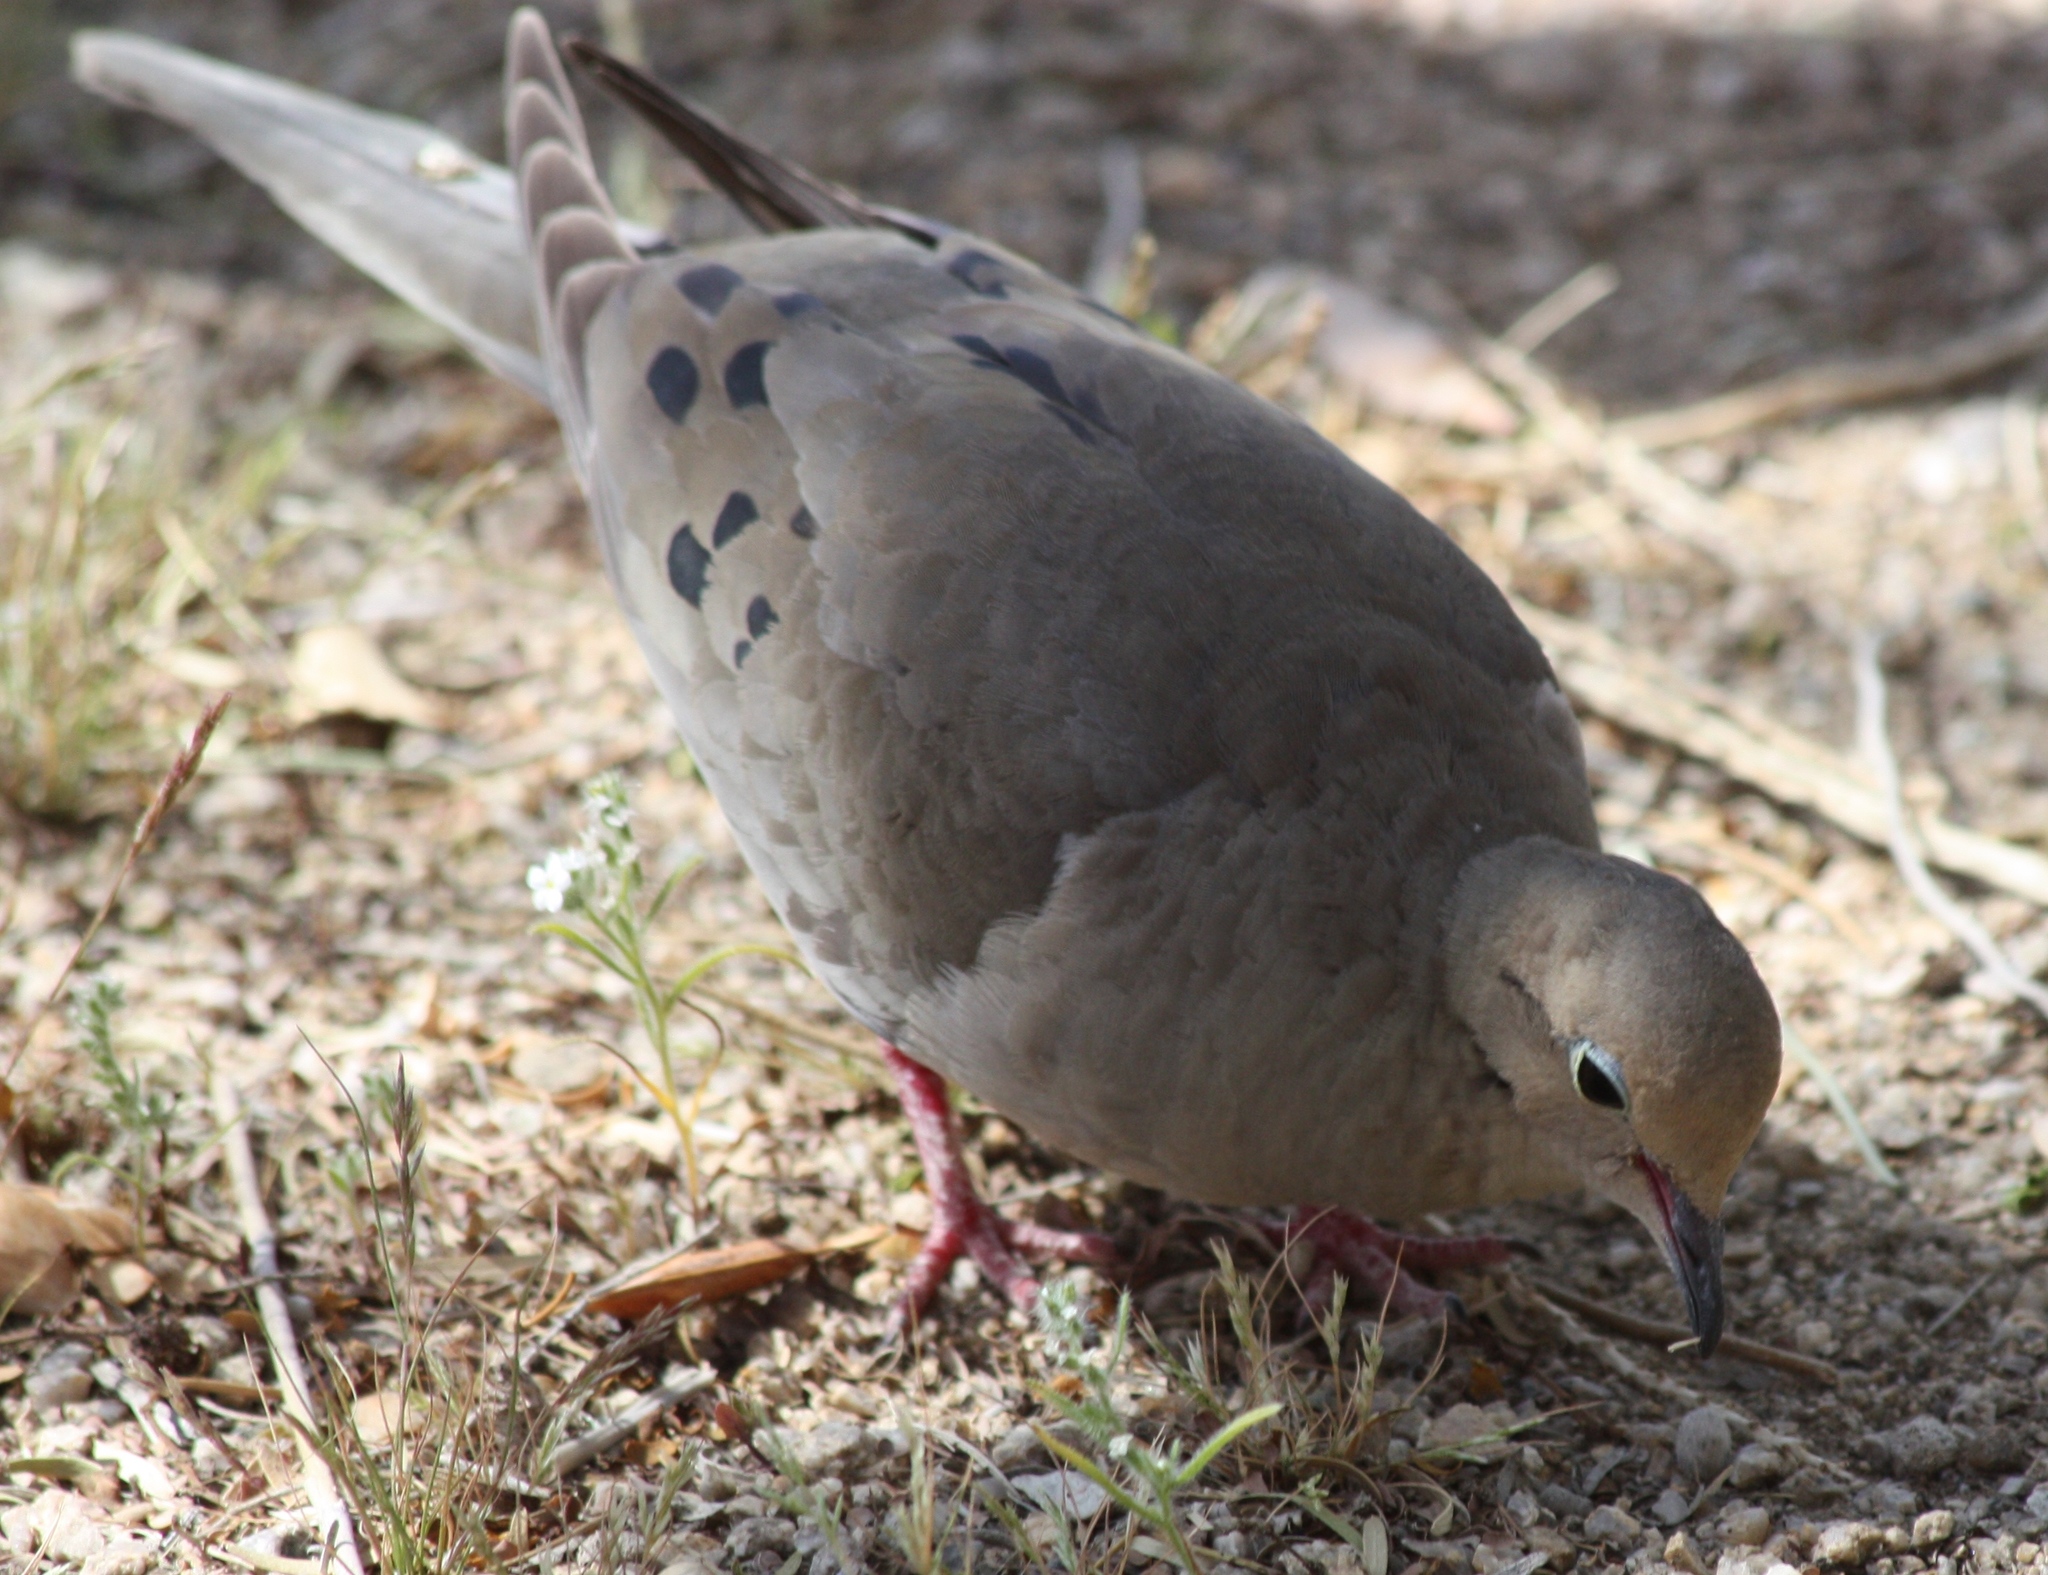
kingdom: Animalia
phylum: Chordata
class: Aves
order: Columbiformes
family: Columbidae
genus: Zenaida
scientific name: Zenaida macroura
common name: Mourning dove
